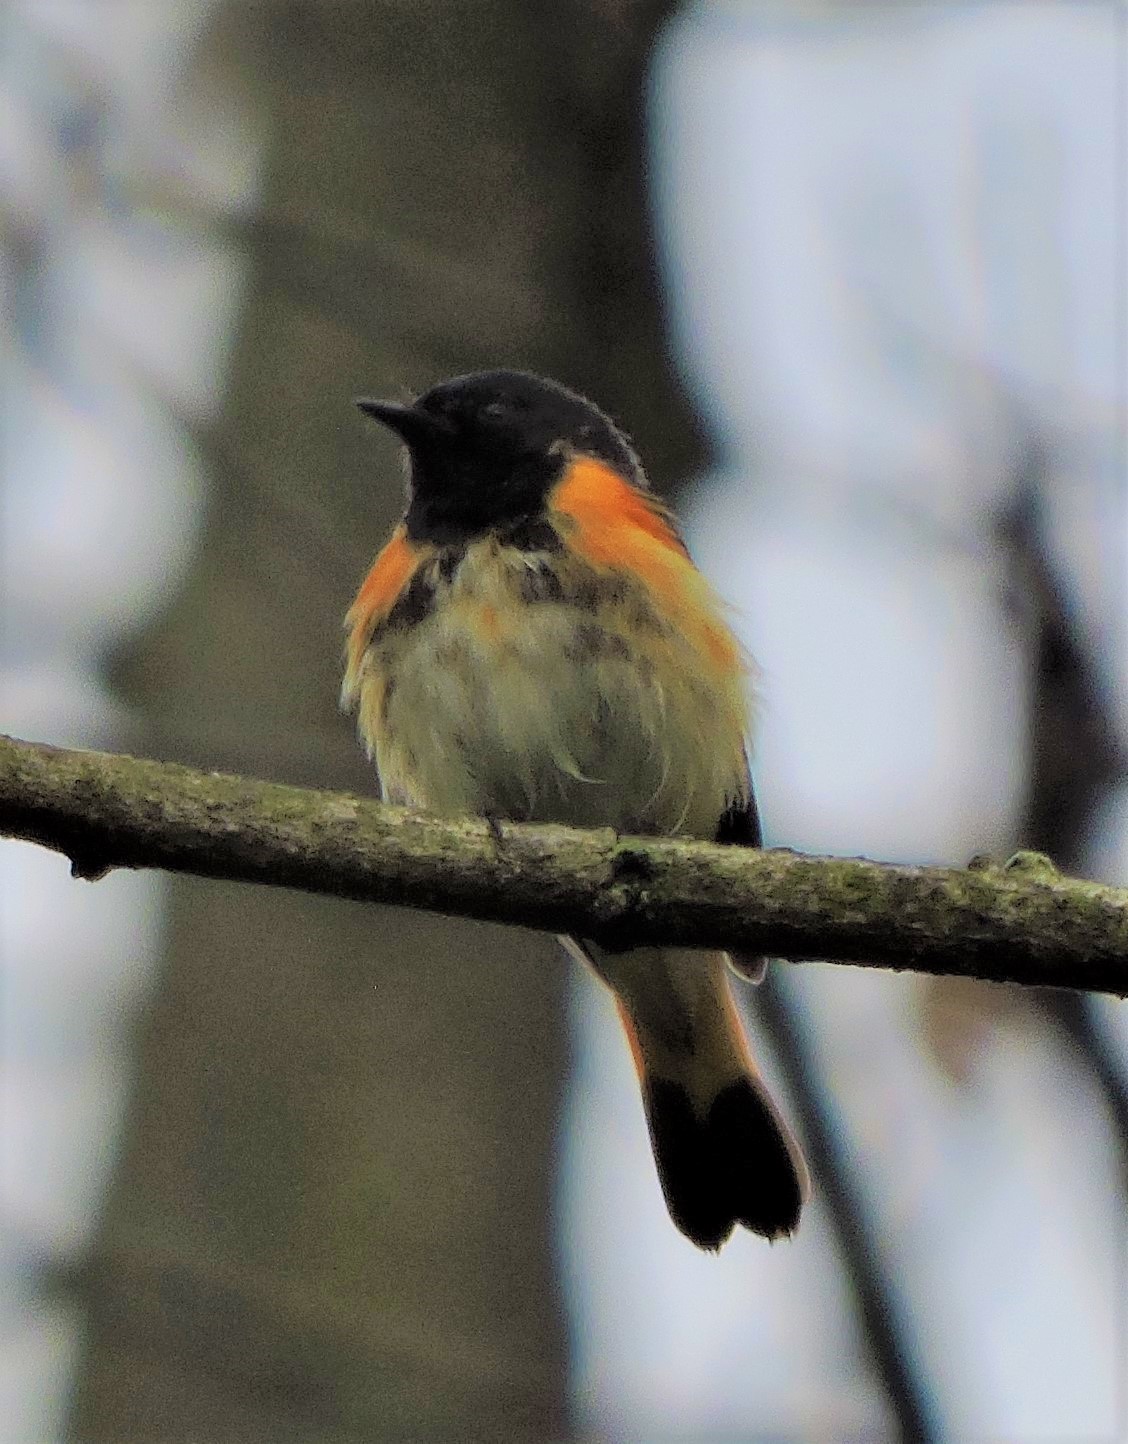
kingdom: Animalia
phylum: Chordata
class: Aves
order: Passeriformes
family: Parulidae
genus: Setophaga
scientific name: Setophaga ruticilla
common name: American redstart
